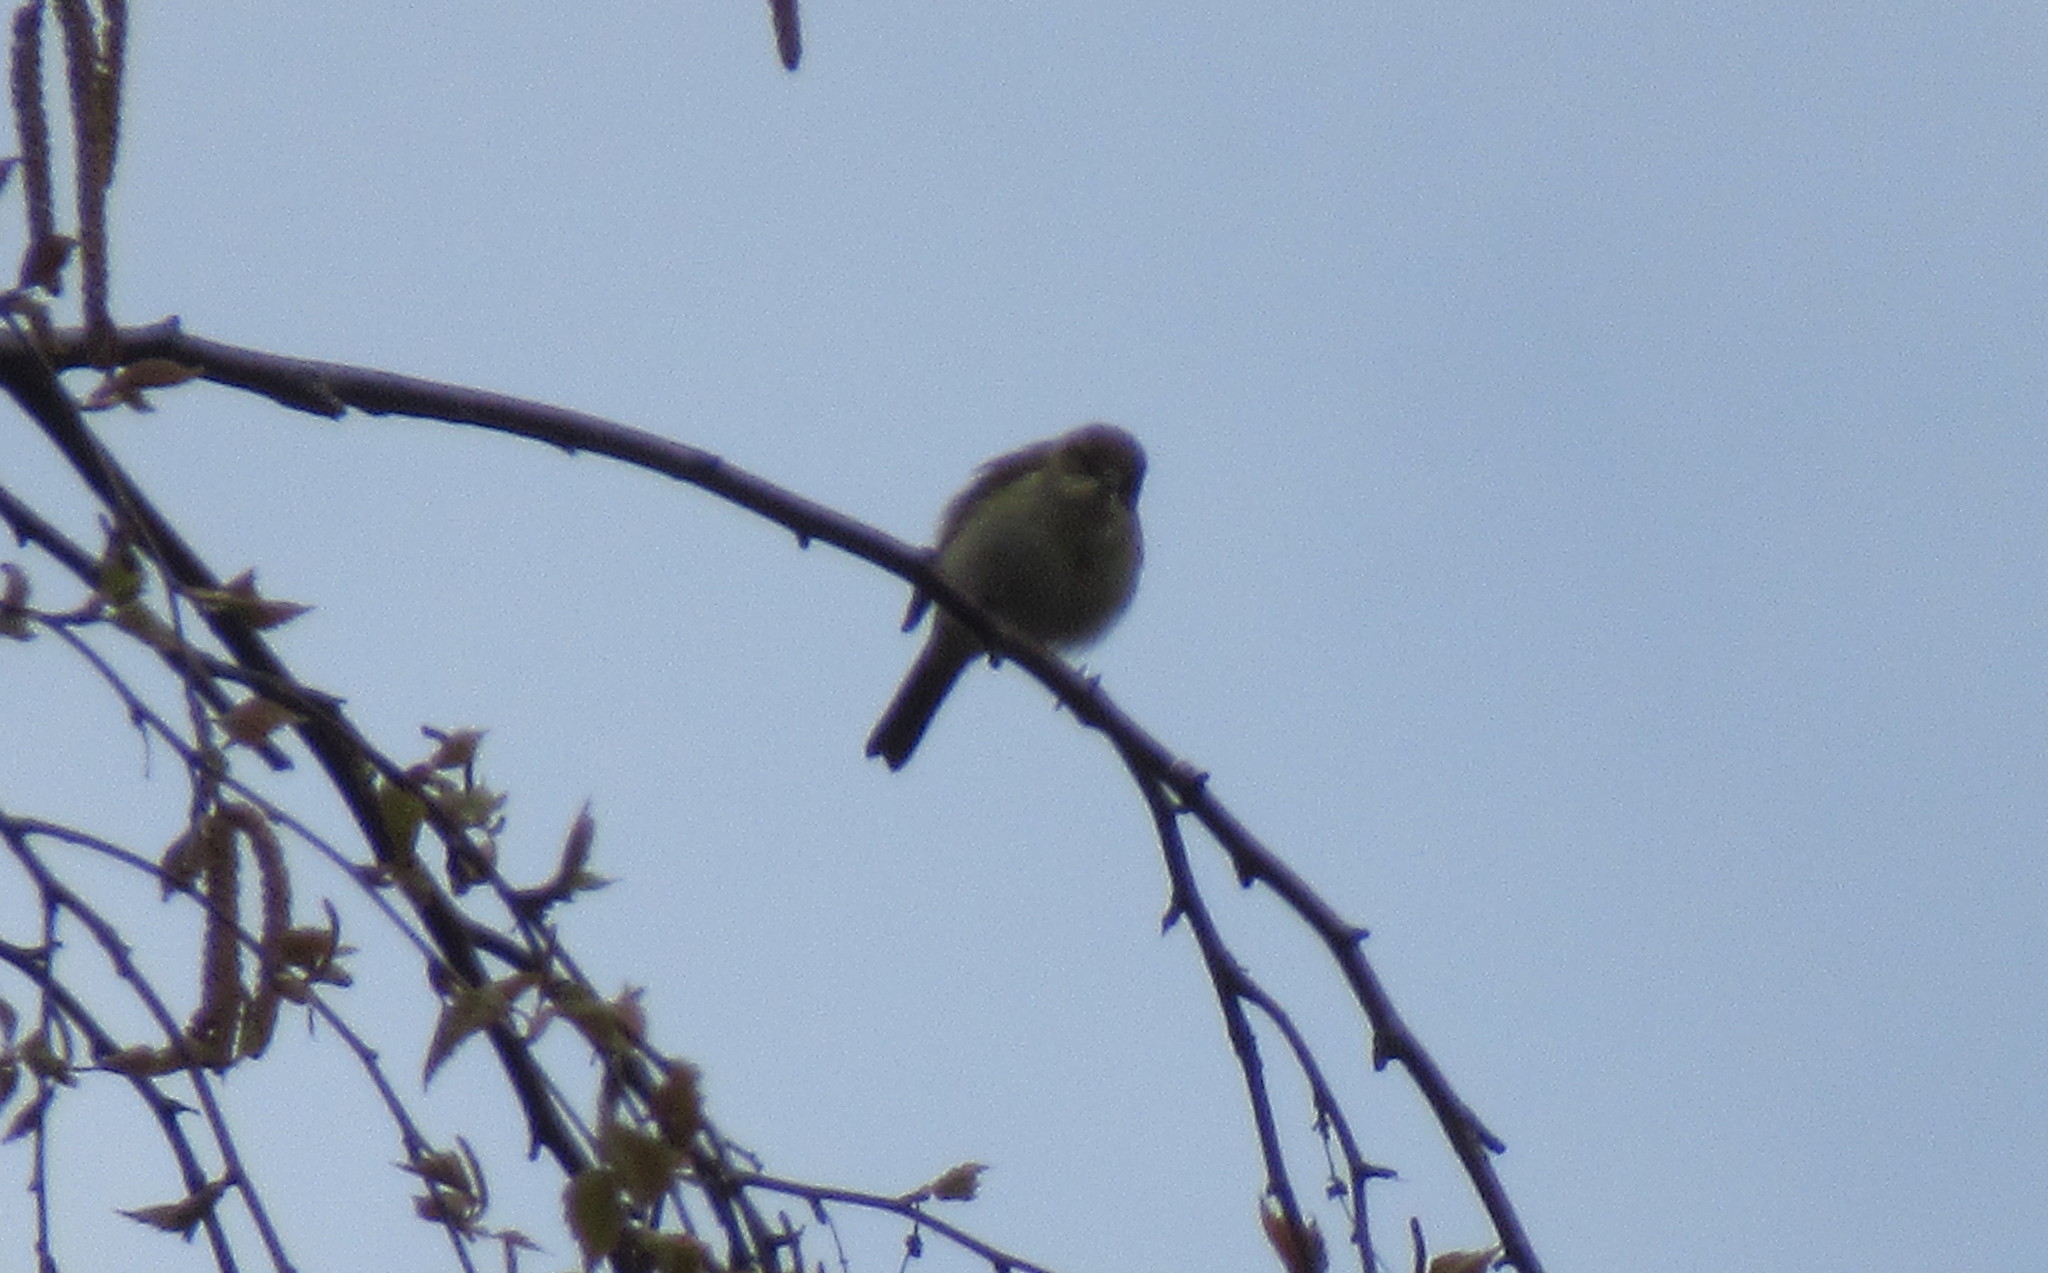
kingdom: Animalia
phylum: Chordata
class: Aves
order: Passeriformes
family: Sylviidae
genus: Sylvia
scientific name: Sylvia atricapilla
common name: Eurasian blackcap
